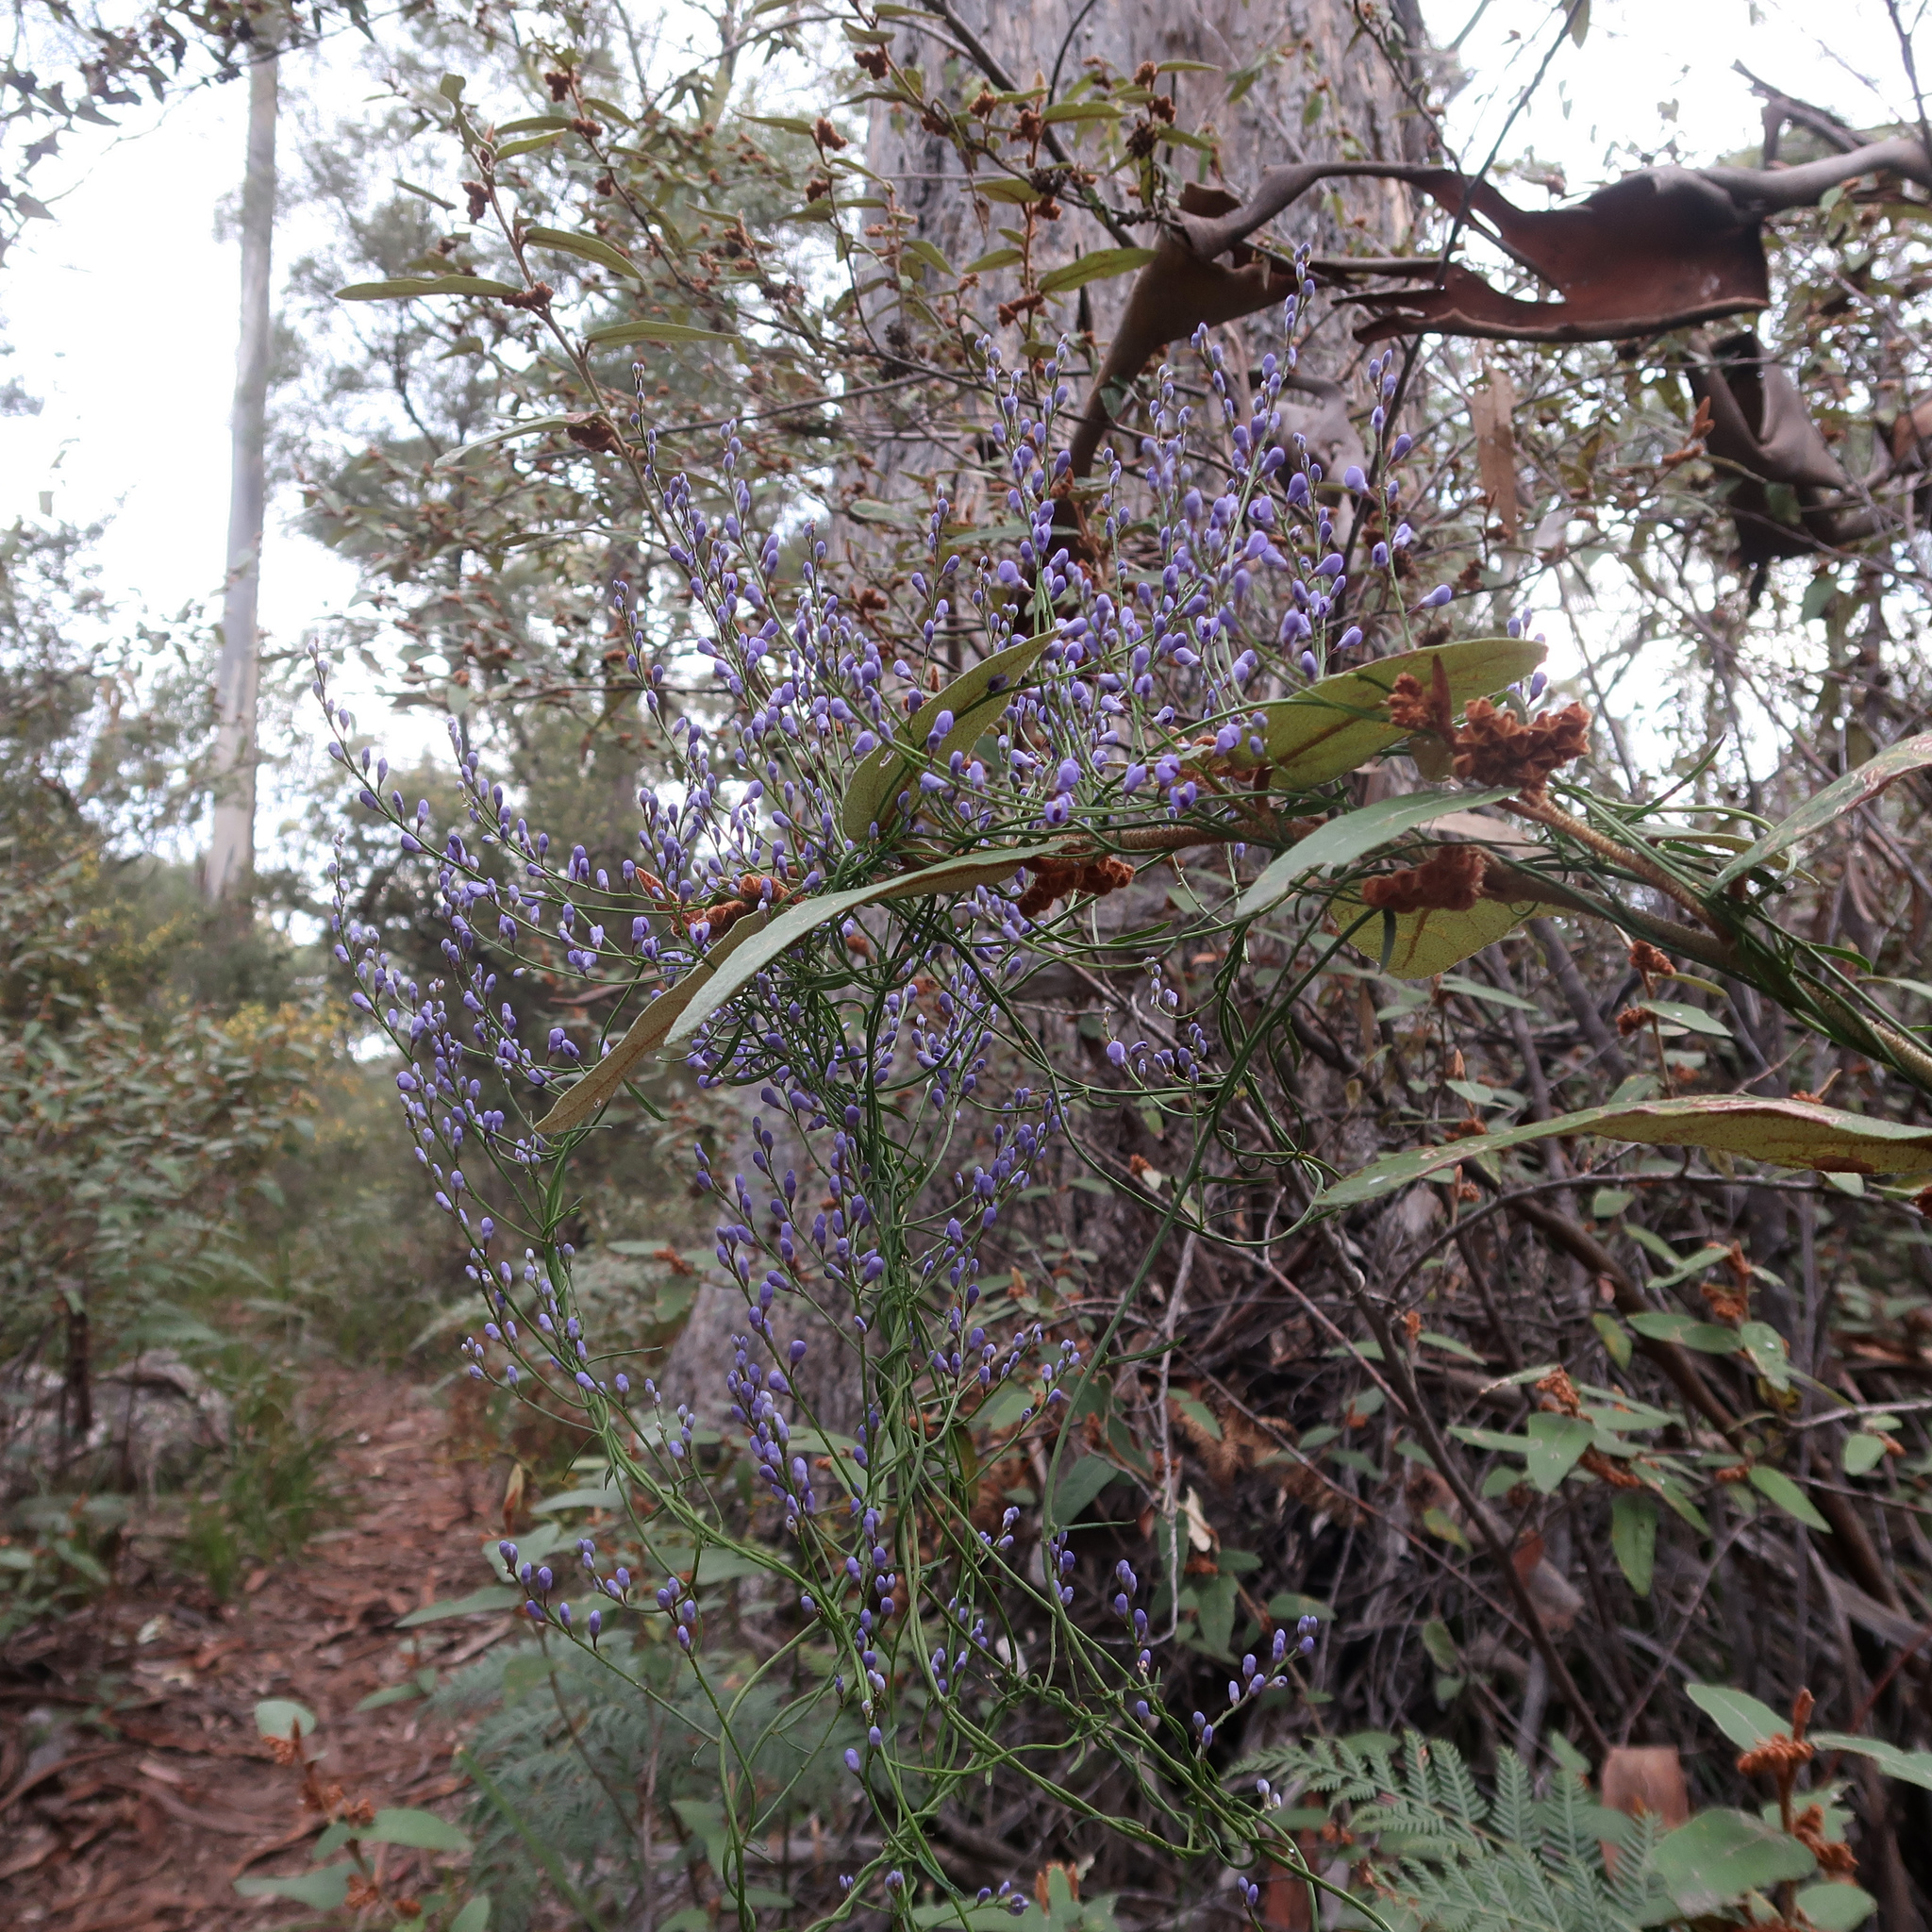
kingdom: Plantae
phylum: Tracheophyta
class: Magnoliopsida
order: Fabales
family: Polygalaceae
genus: Comesperma
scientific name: Comesperma volubile
